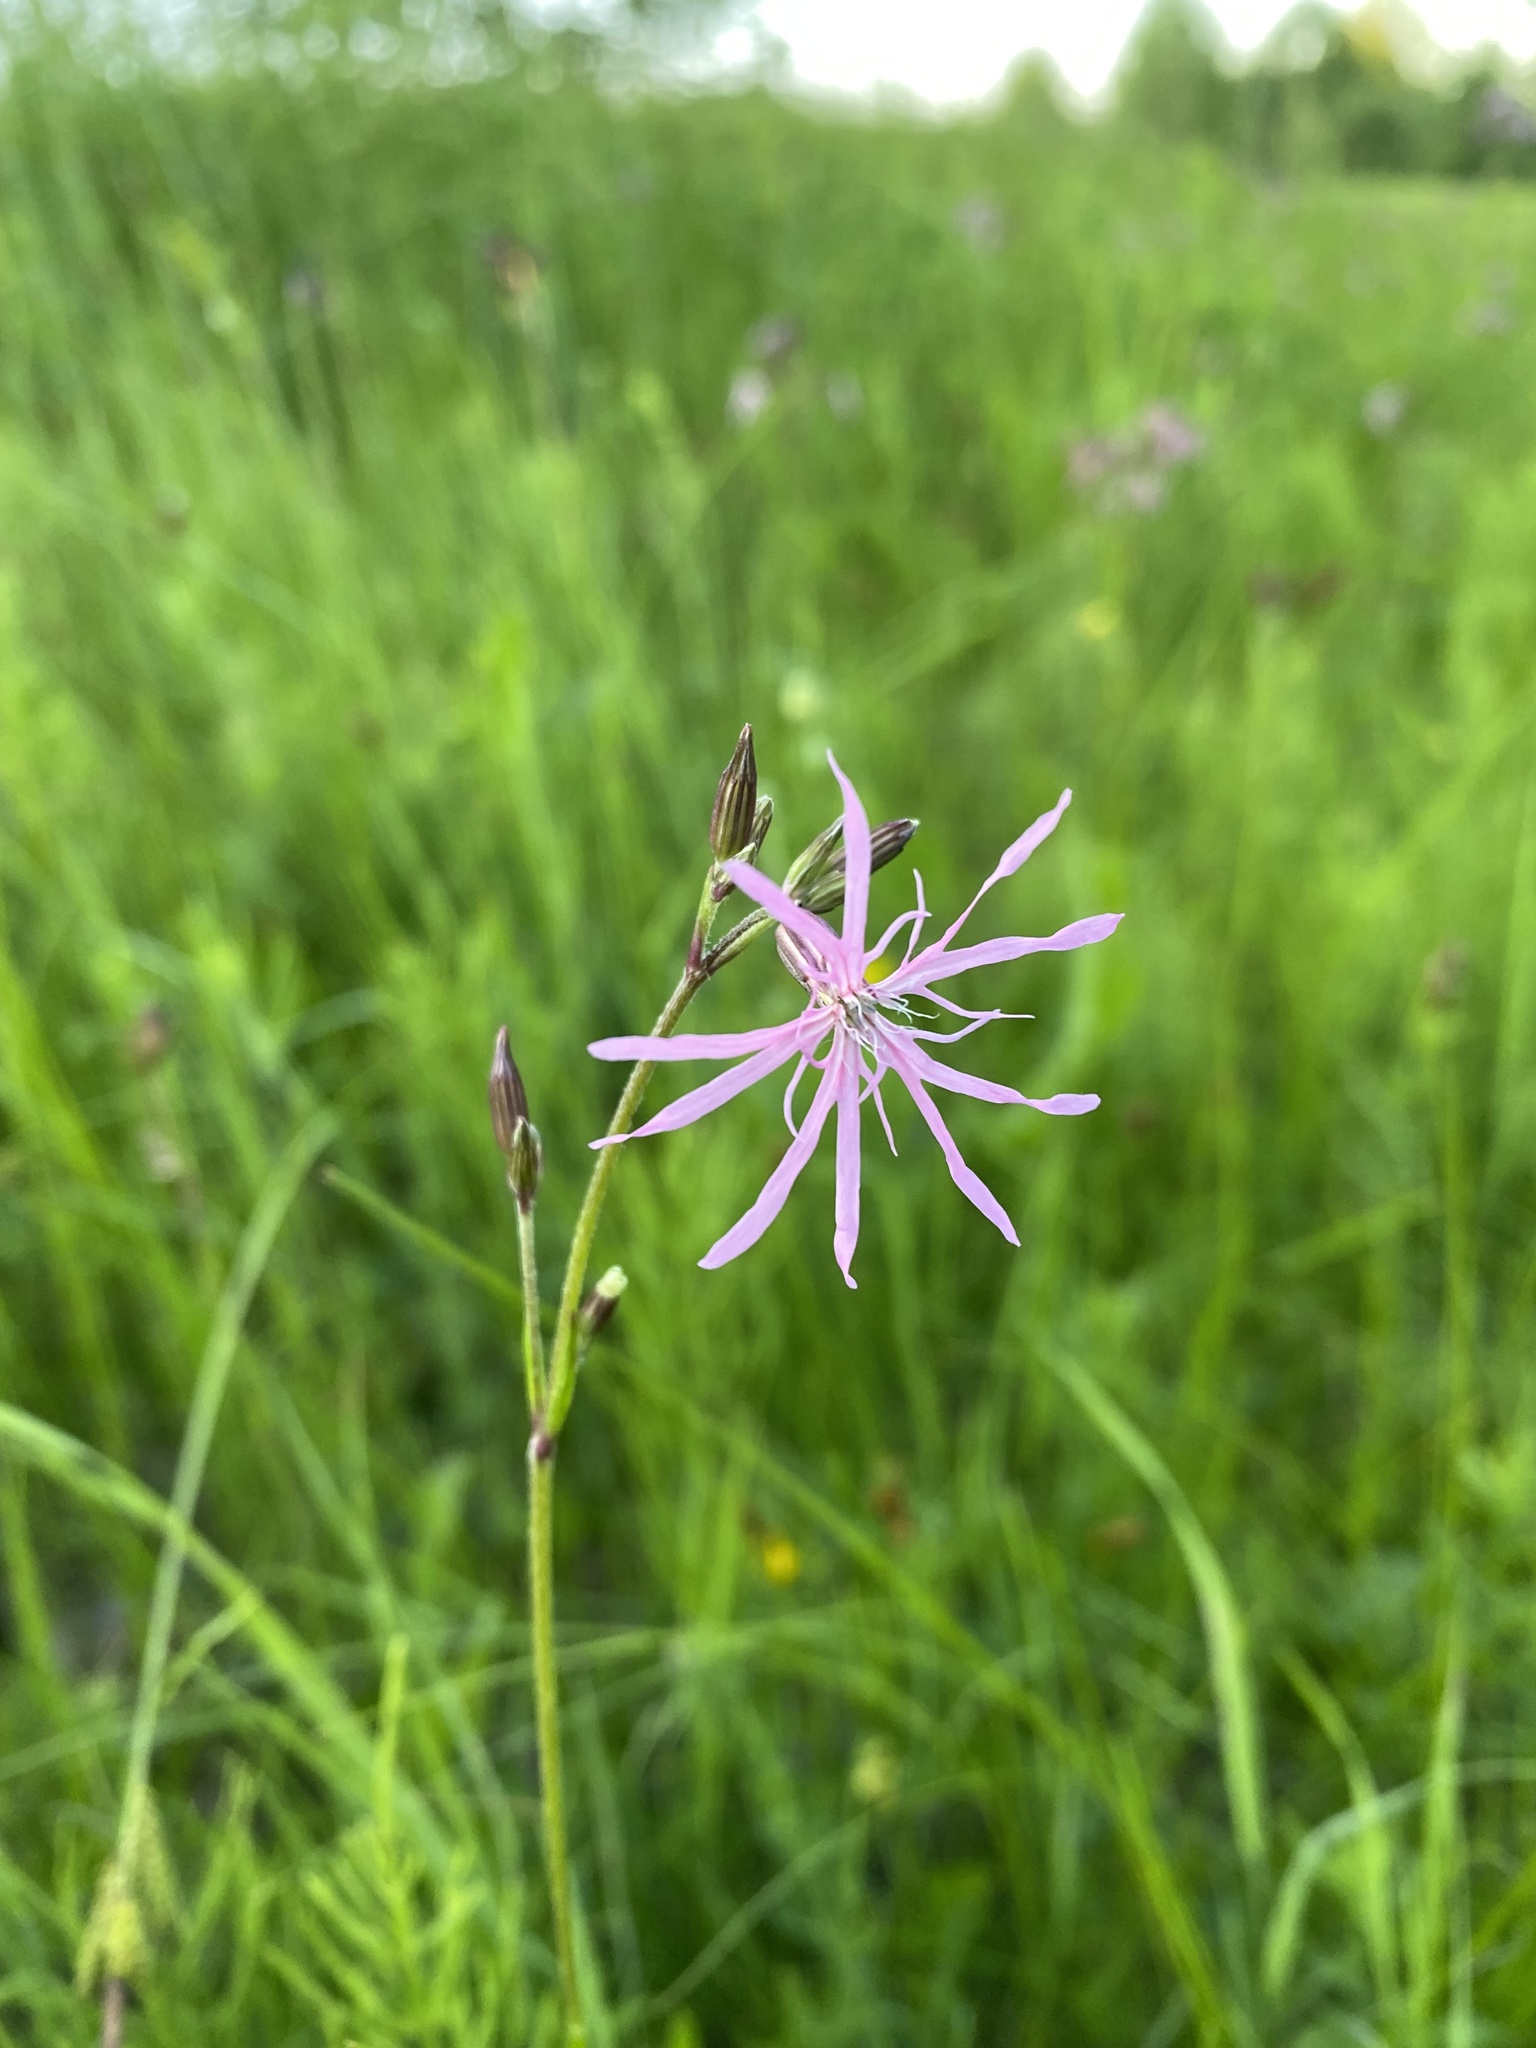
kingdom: Plantae
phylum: Tracheophyta
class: Magnoliopsida
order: Caryophyllales
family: Caryophyllaceae
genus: Silene
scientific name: Silene flos-cuculi
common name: Ragged-robin
